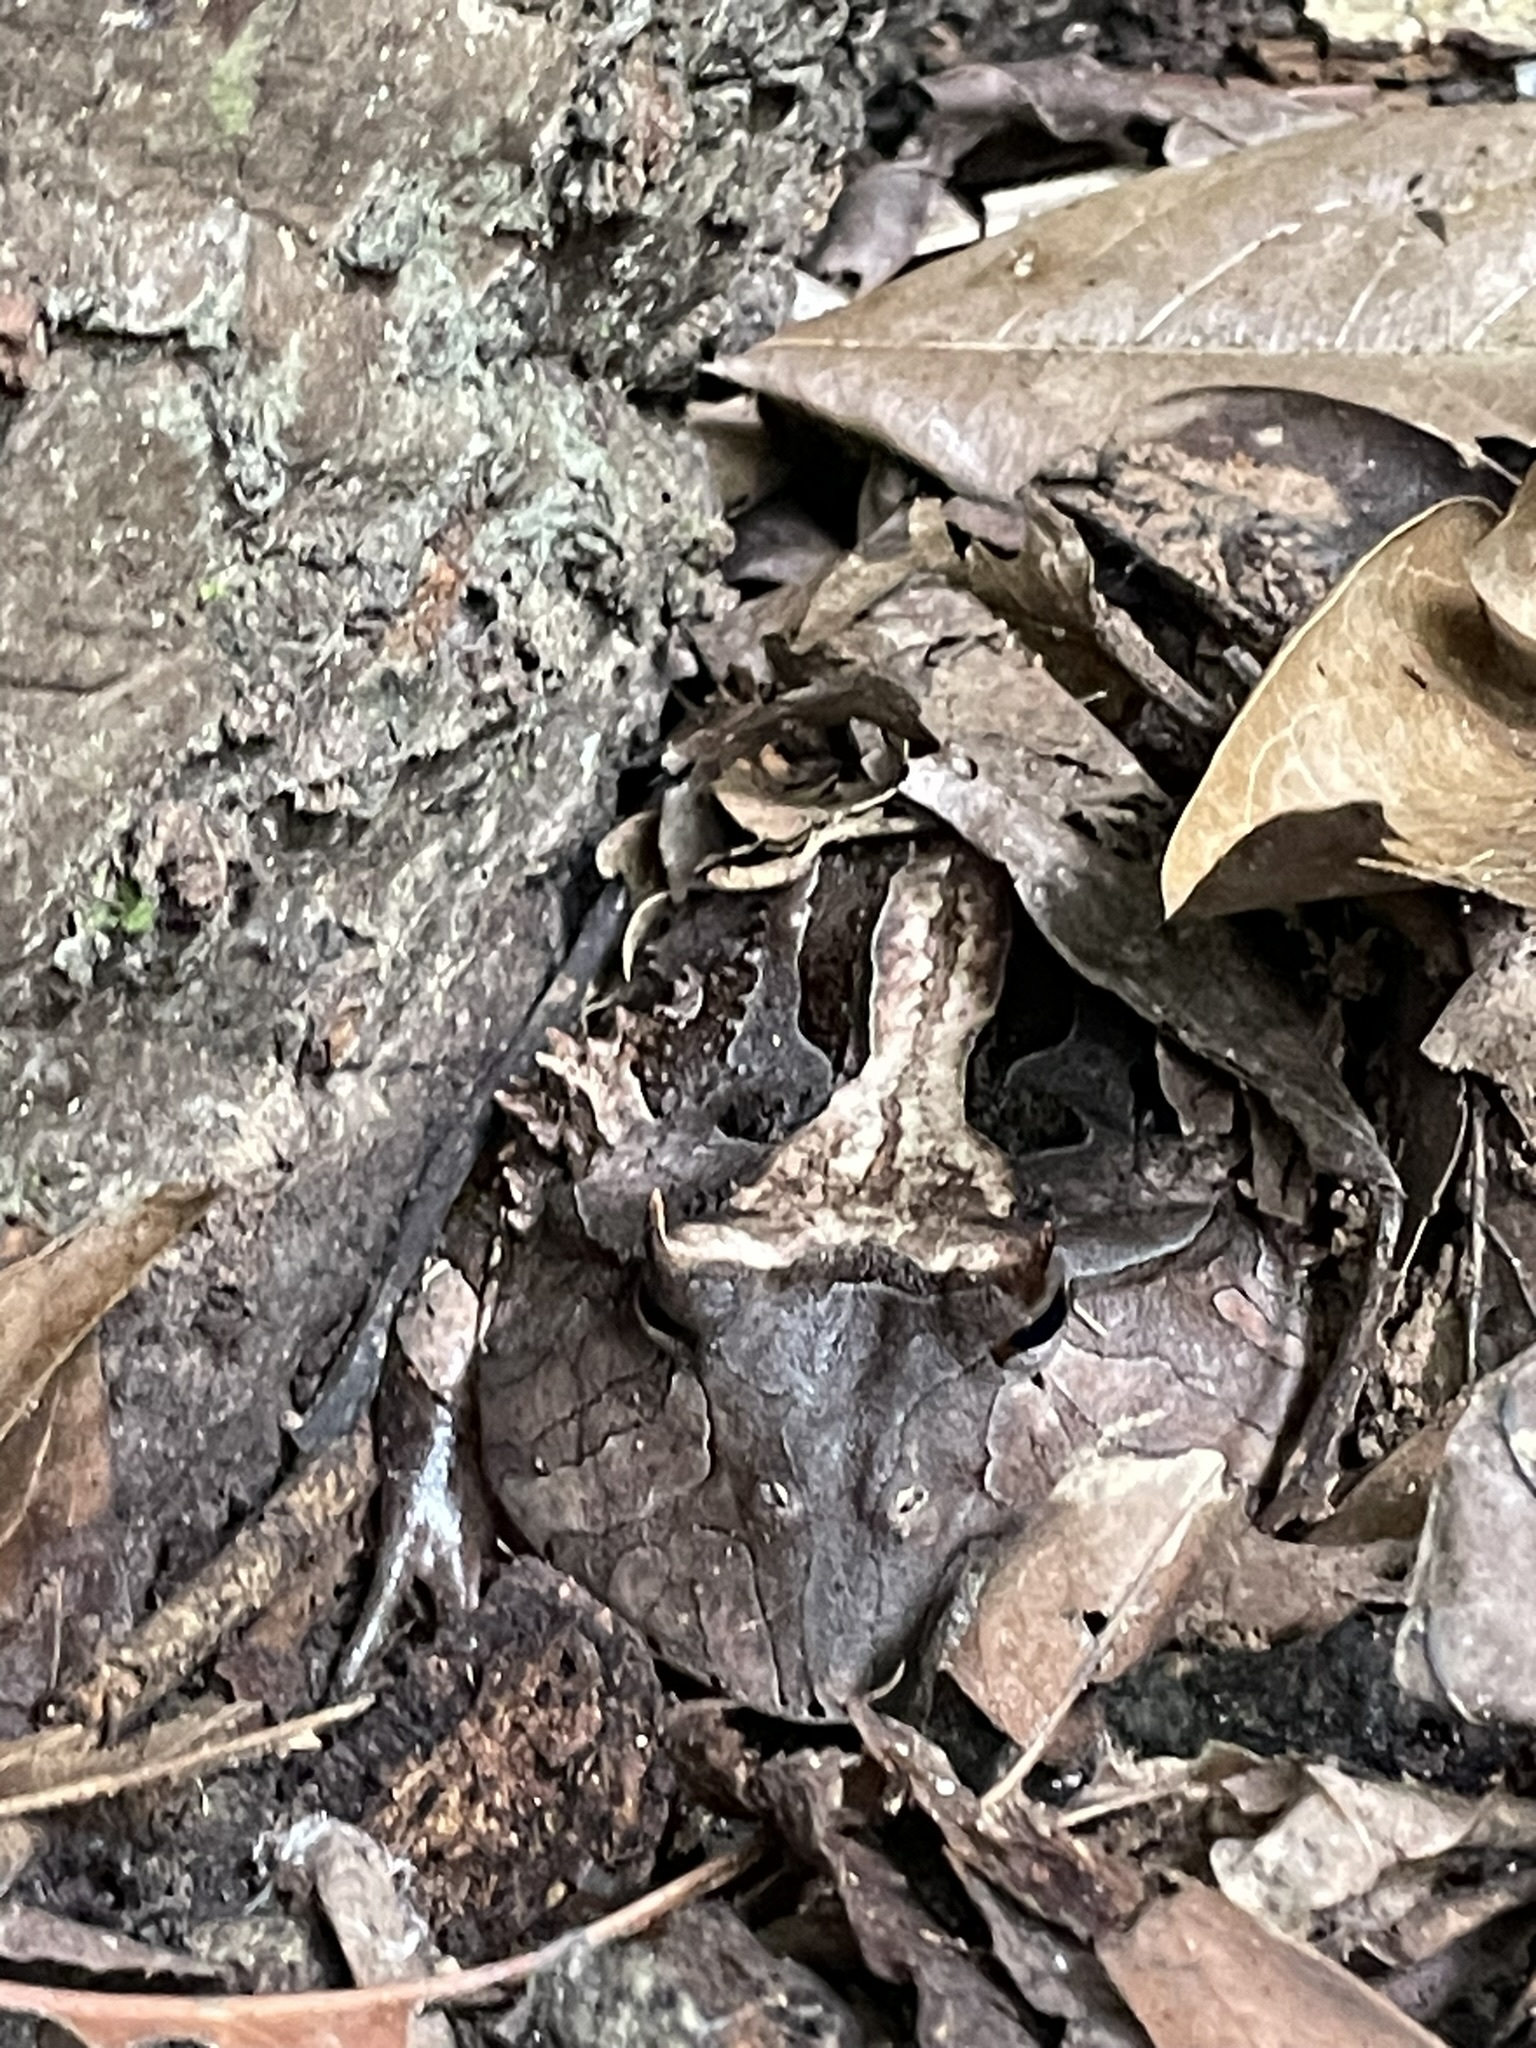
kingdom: Animalia
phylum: Chordata
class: Amphibia
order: Anura
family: Ceratophryidae
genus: Ceratophrys
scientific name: Ceratophrys cornuta
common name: Amazonian horned frog
